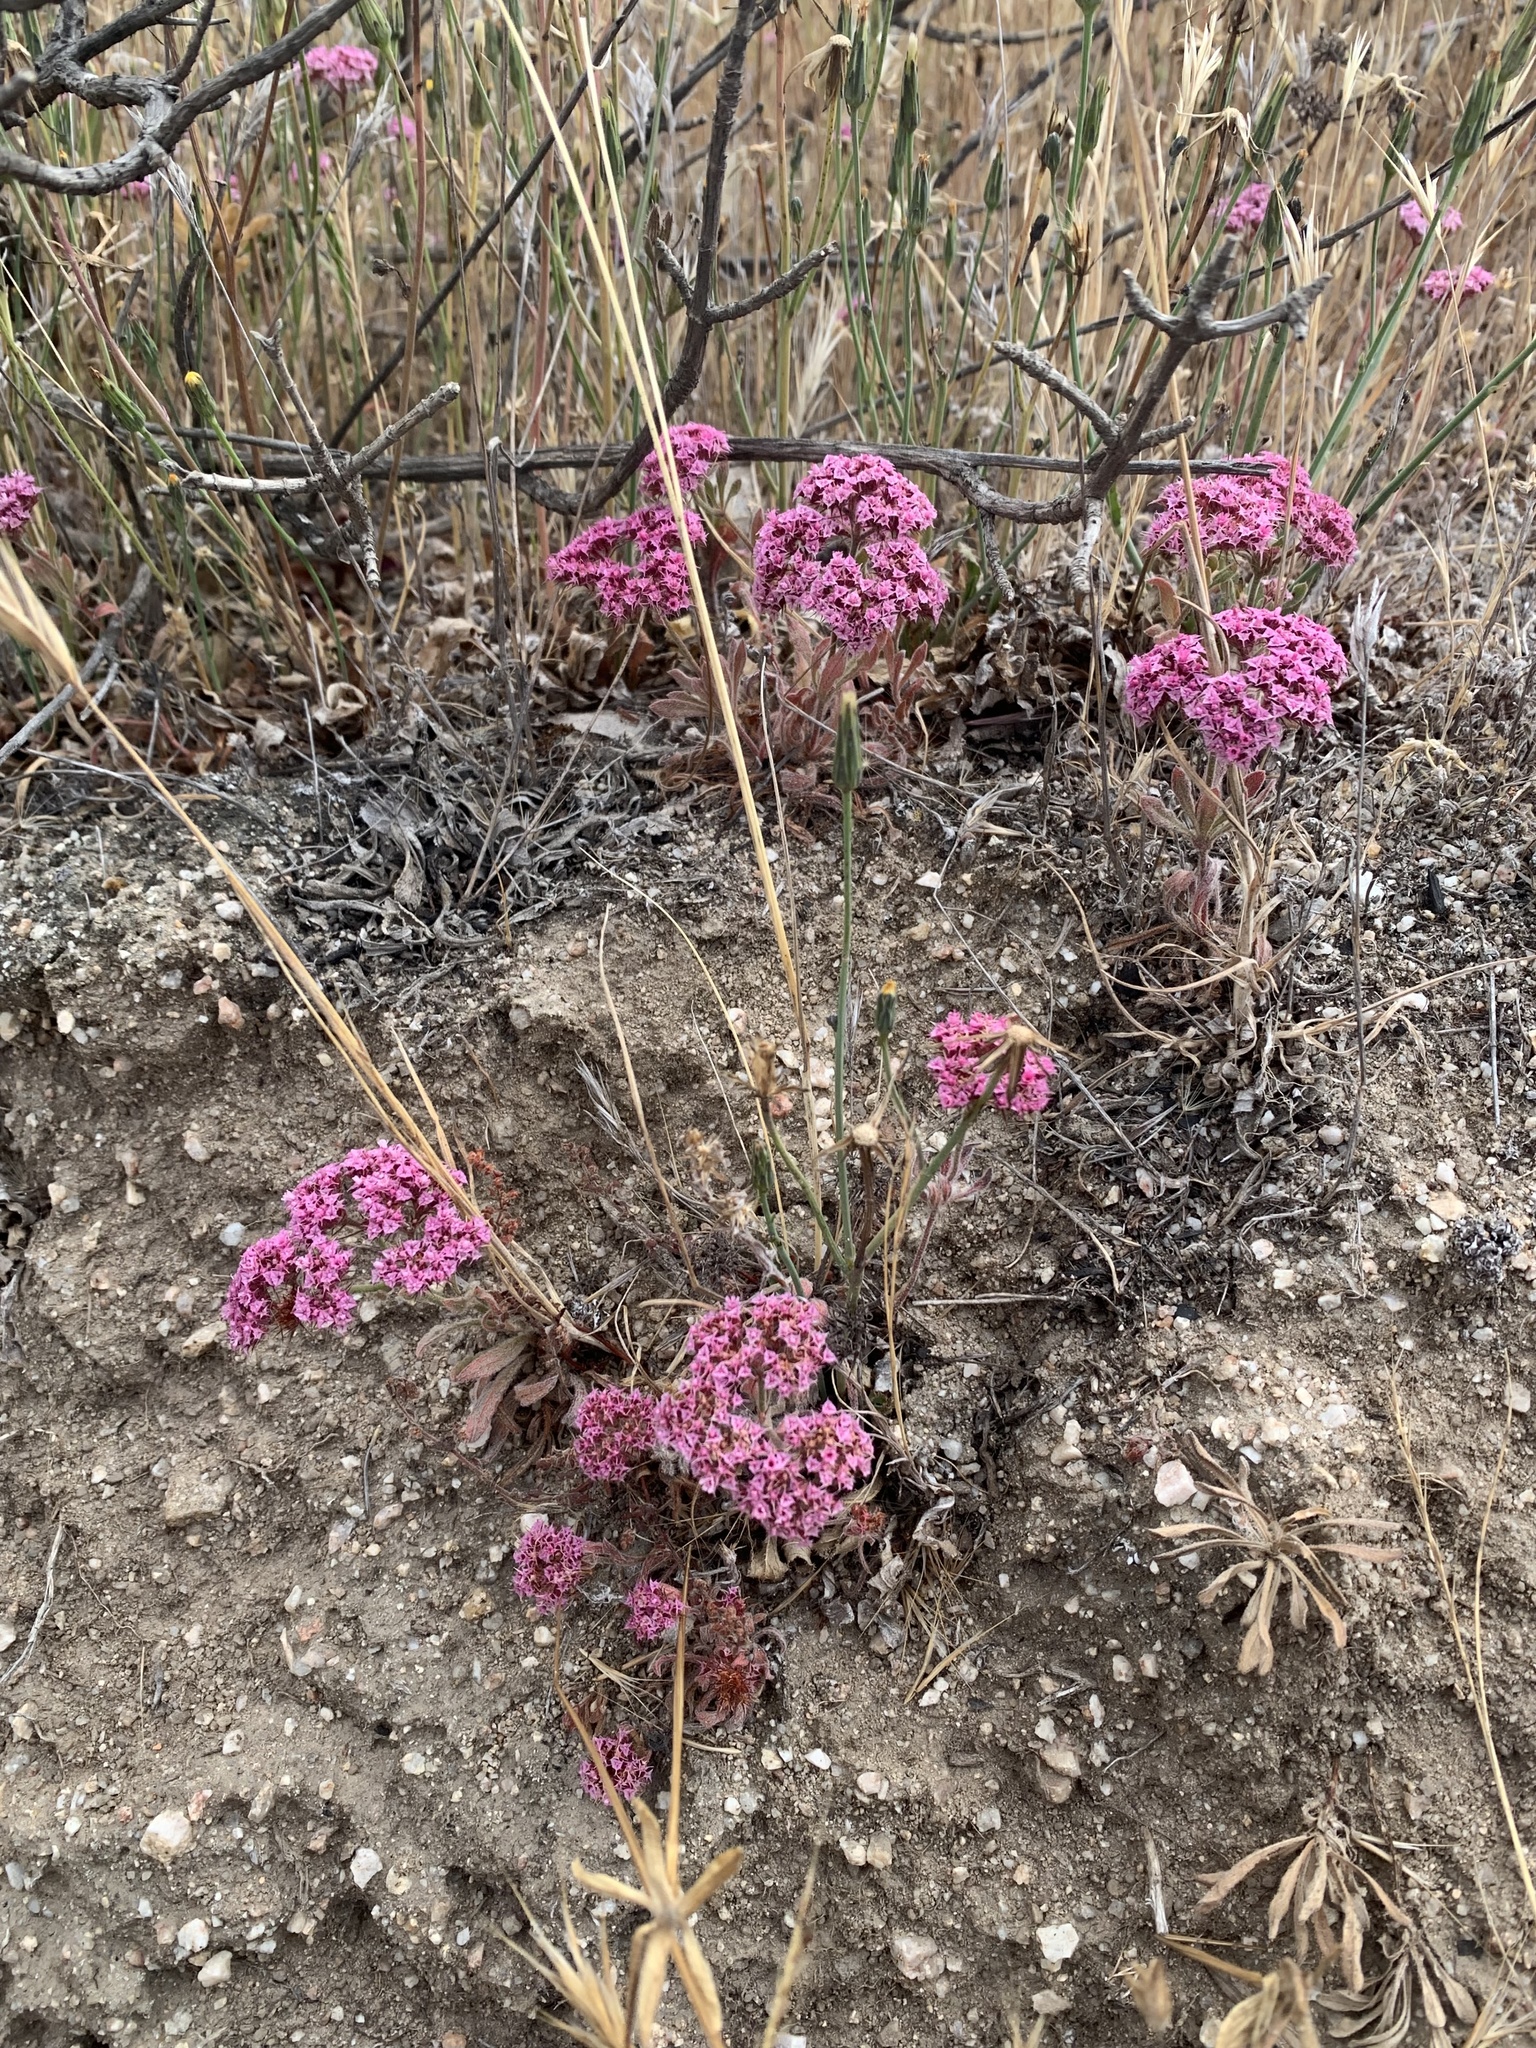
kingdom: Plantae
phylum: Tracheophyta
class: Magnoliopsida
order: Caryophyllales
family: Polygonaceae
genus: Chorizanthe
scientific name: Chorizanthe douglasii
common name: Douglas's spineflower
